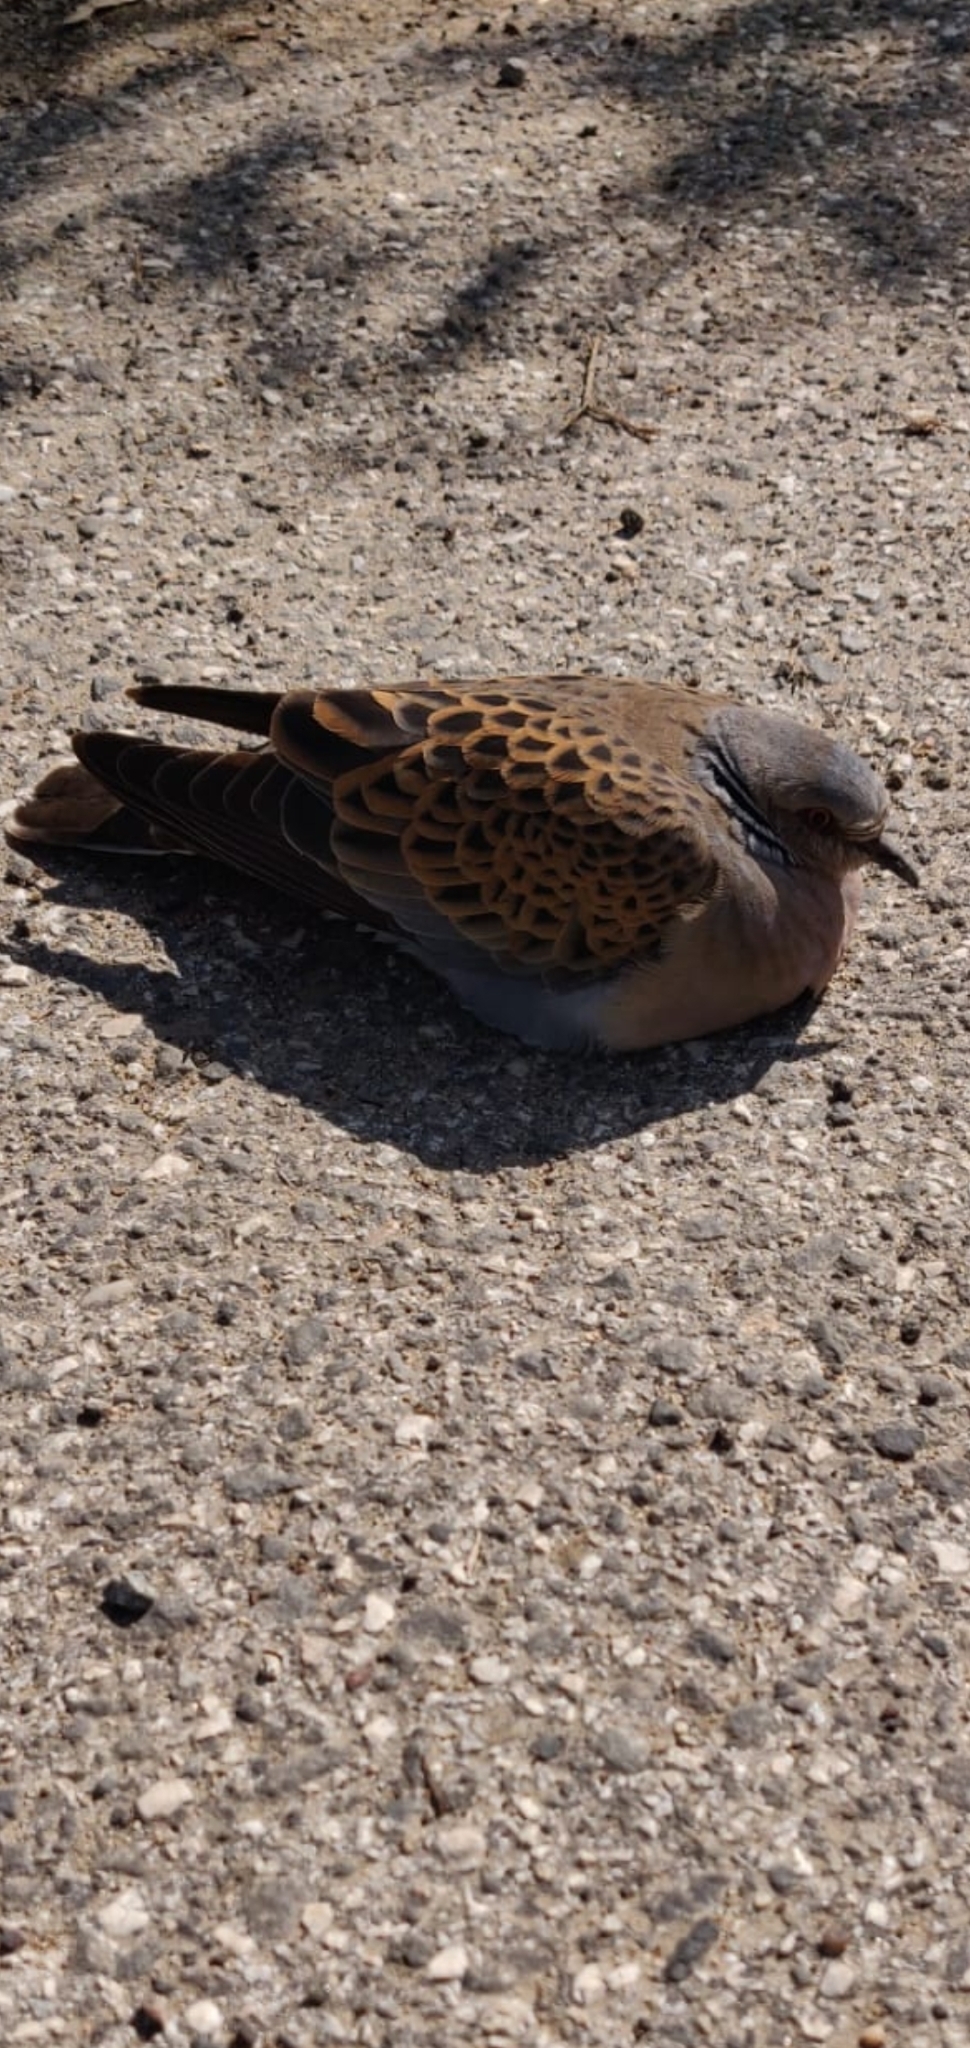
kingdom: Animalia
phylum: Chordata
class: Aves
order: Columbiformes
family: Columbidae
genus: Streptopelia
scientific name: Streptopelia turtur
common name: European turtle dove
